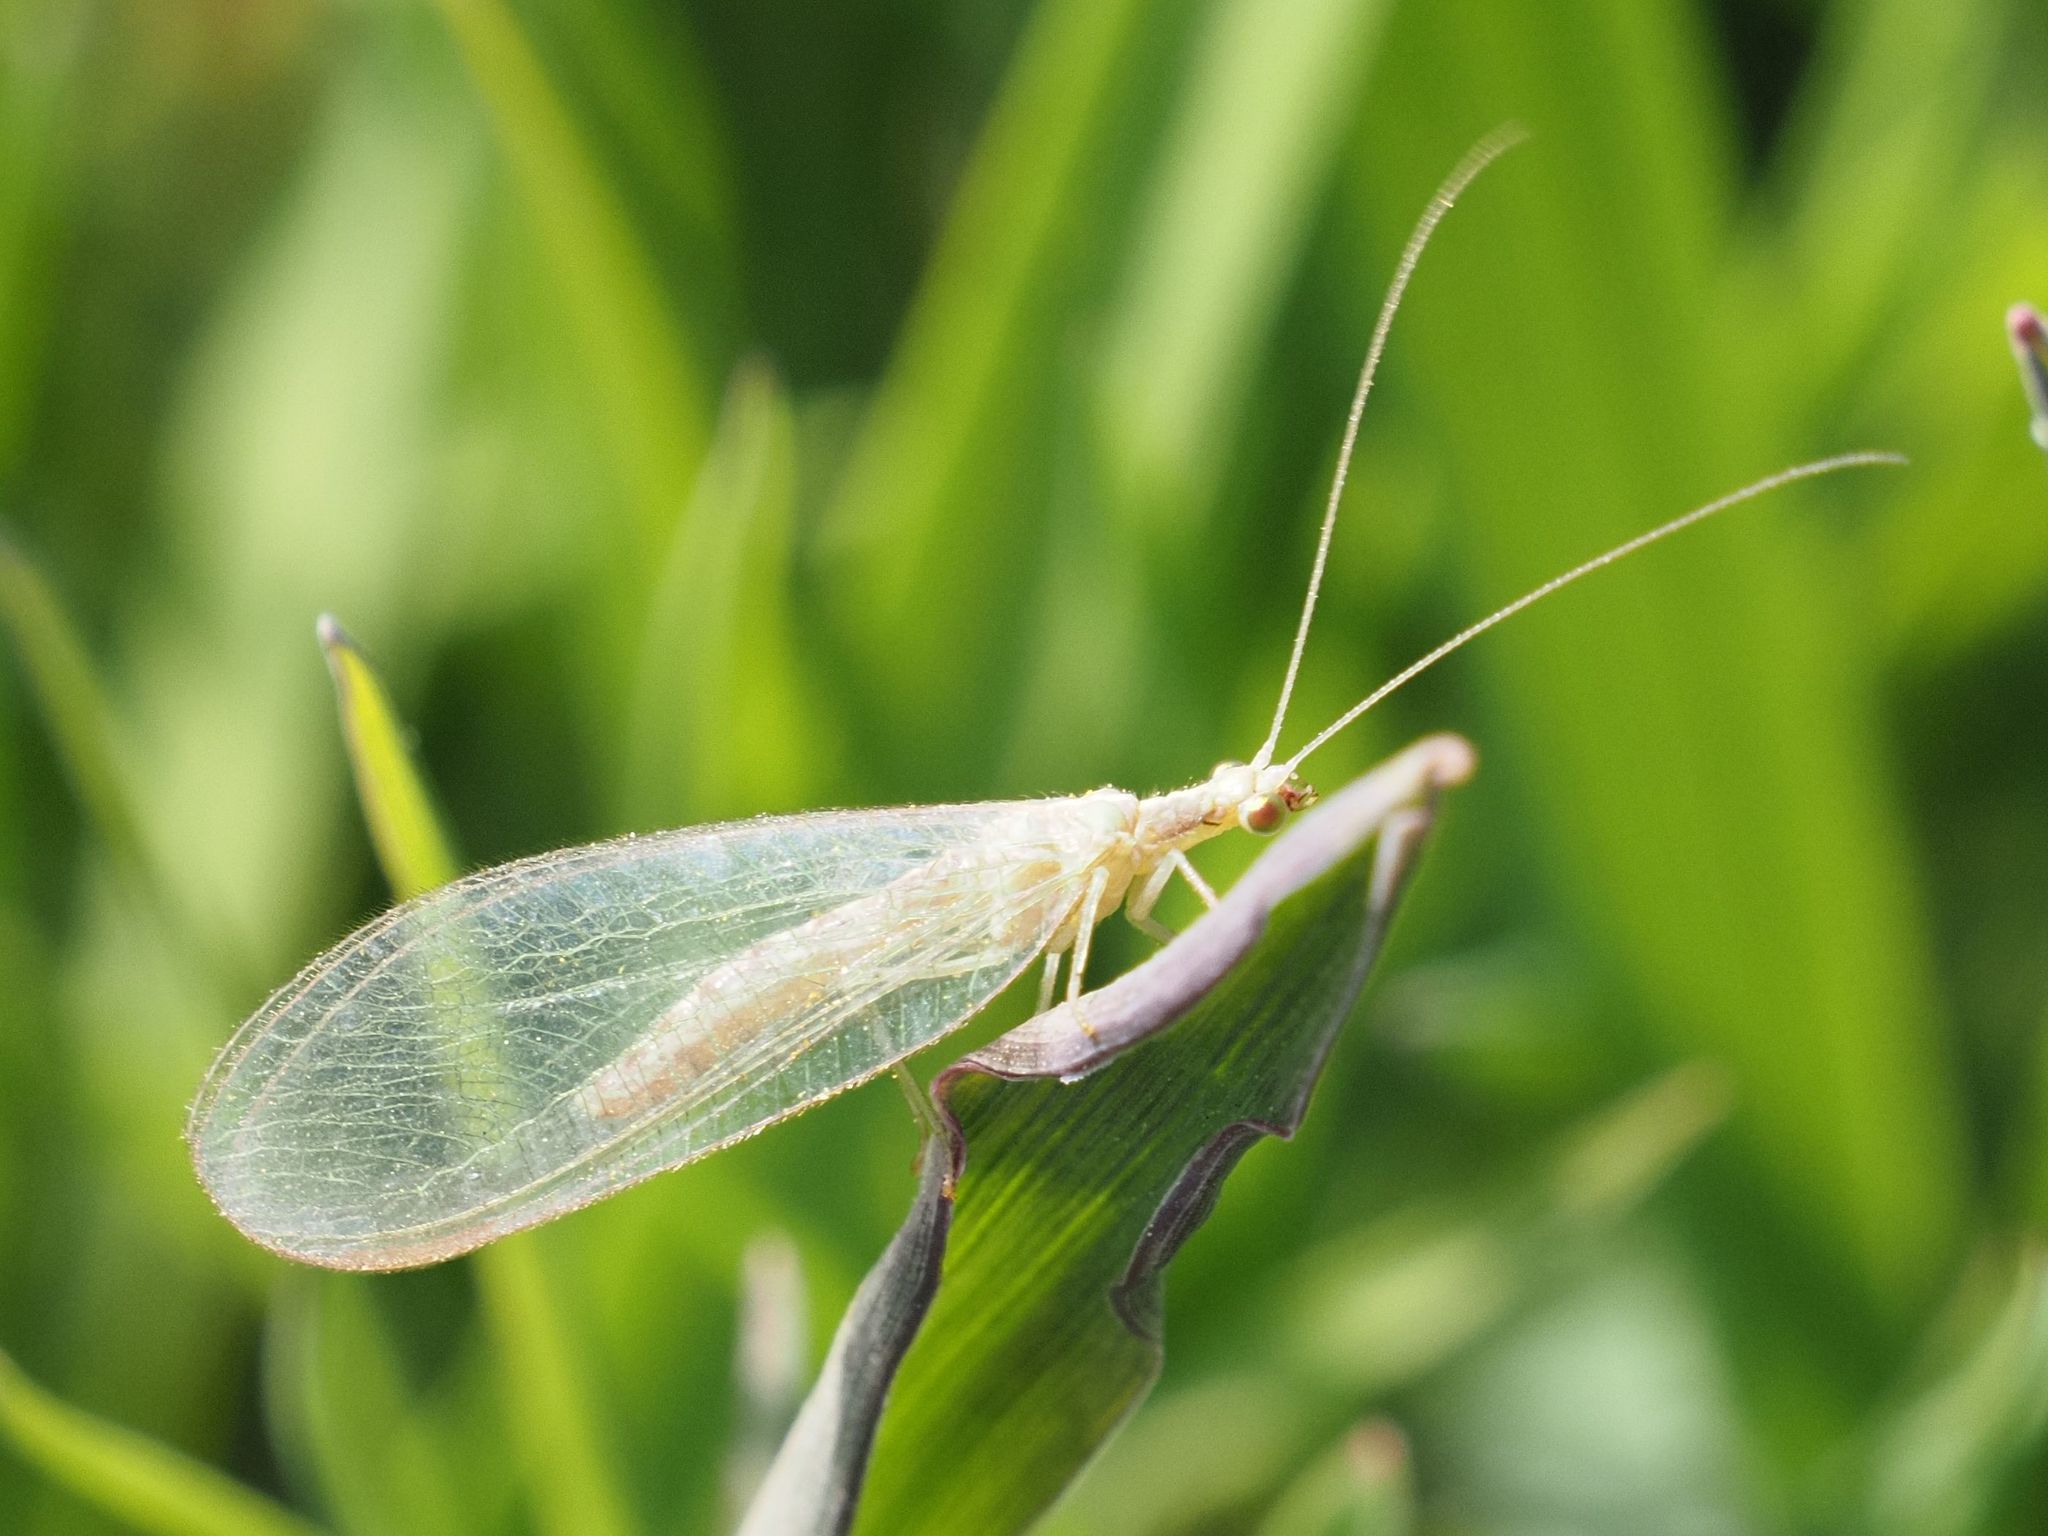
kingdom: Animalia
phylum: Arthropoda
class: Insecta
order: Neuroptera
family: Chrysopidae
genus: Chrysoperla
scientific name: Chrysoperla
